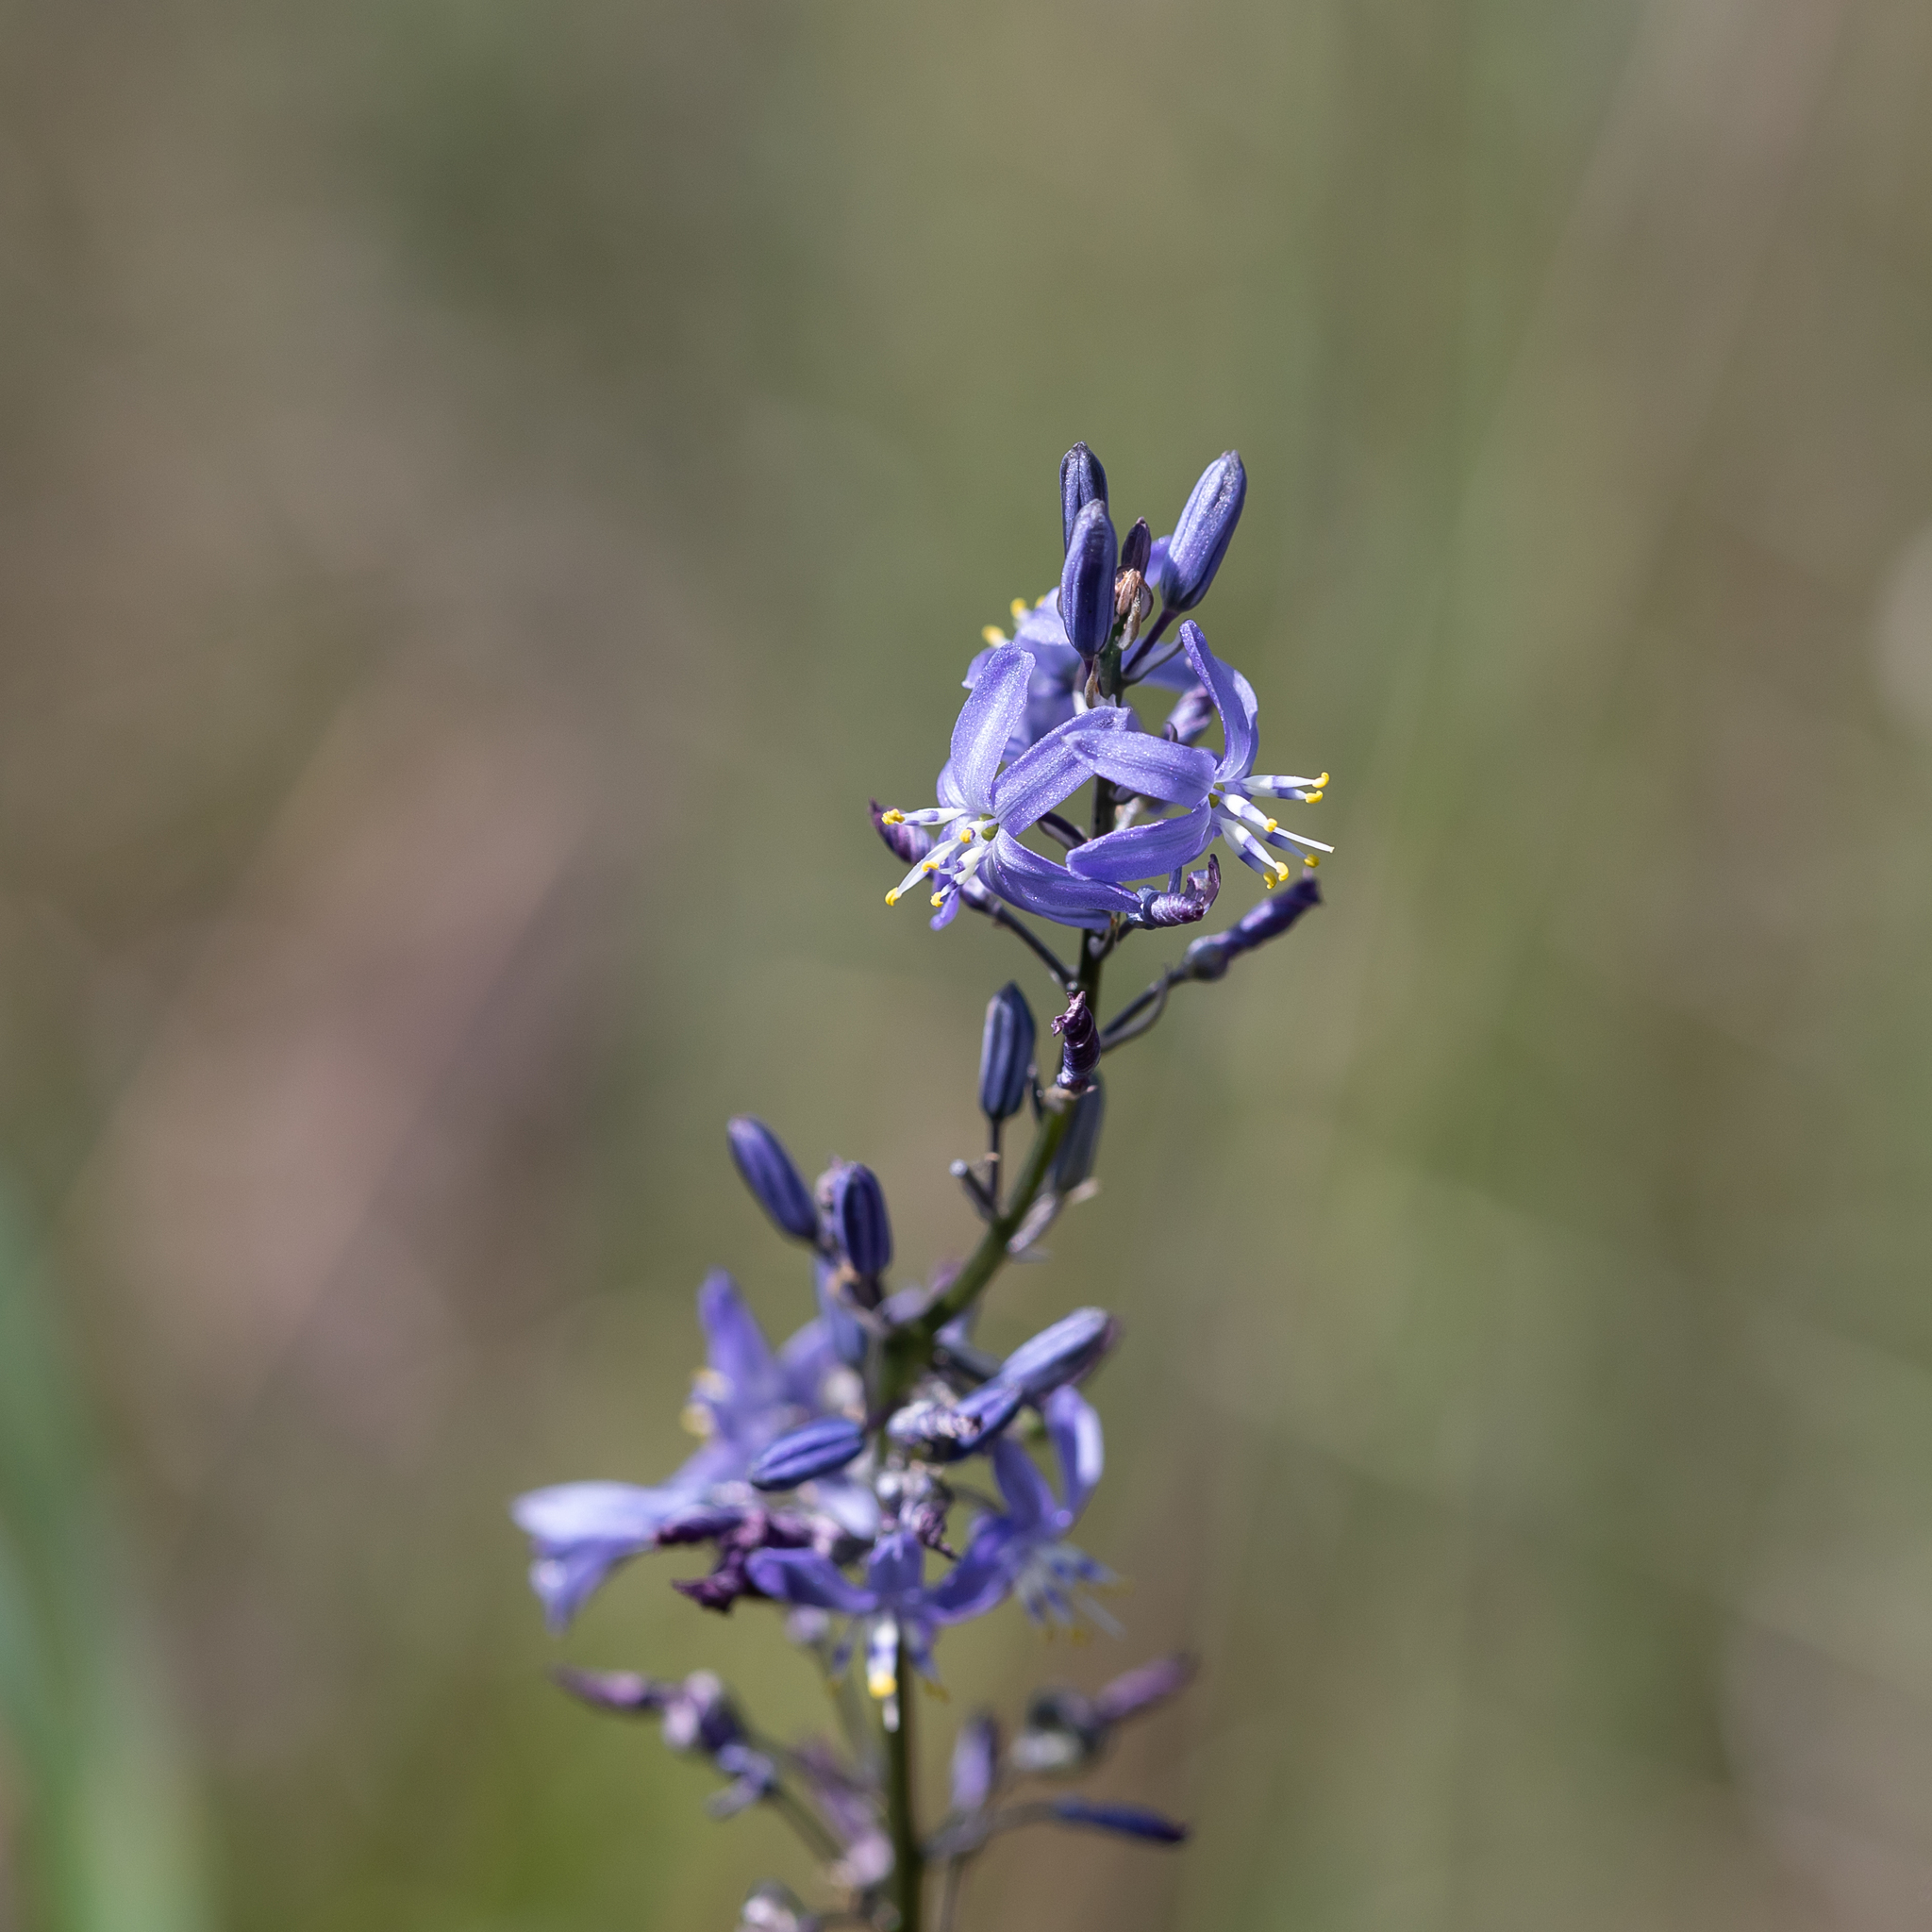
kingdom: Plantae
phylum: Tracheophyta
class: Liliopsida
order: Asparagales
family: Asphodelaceae
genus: Caesia
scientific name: Caesia calliantha
